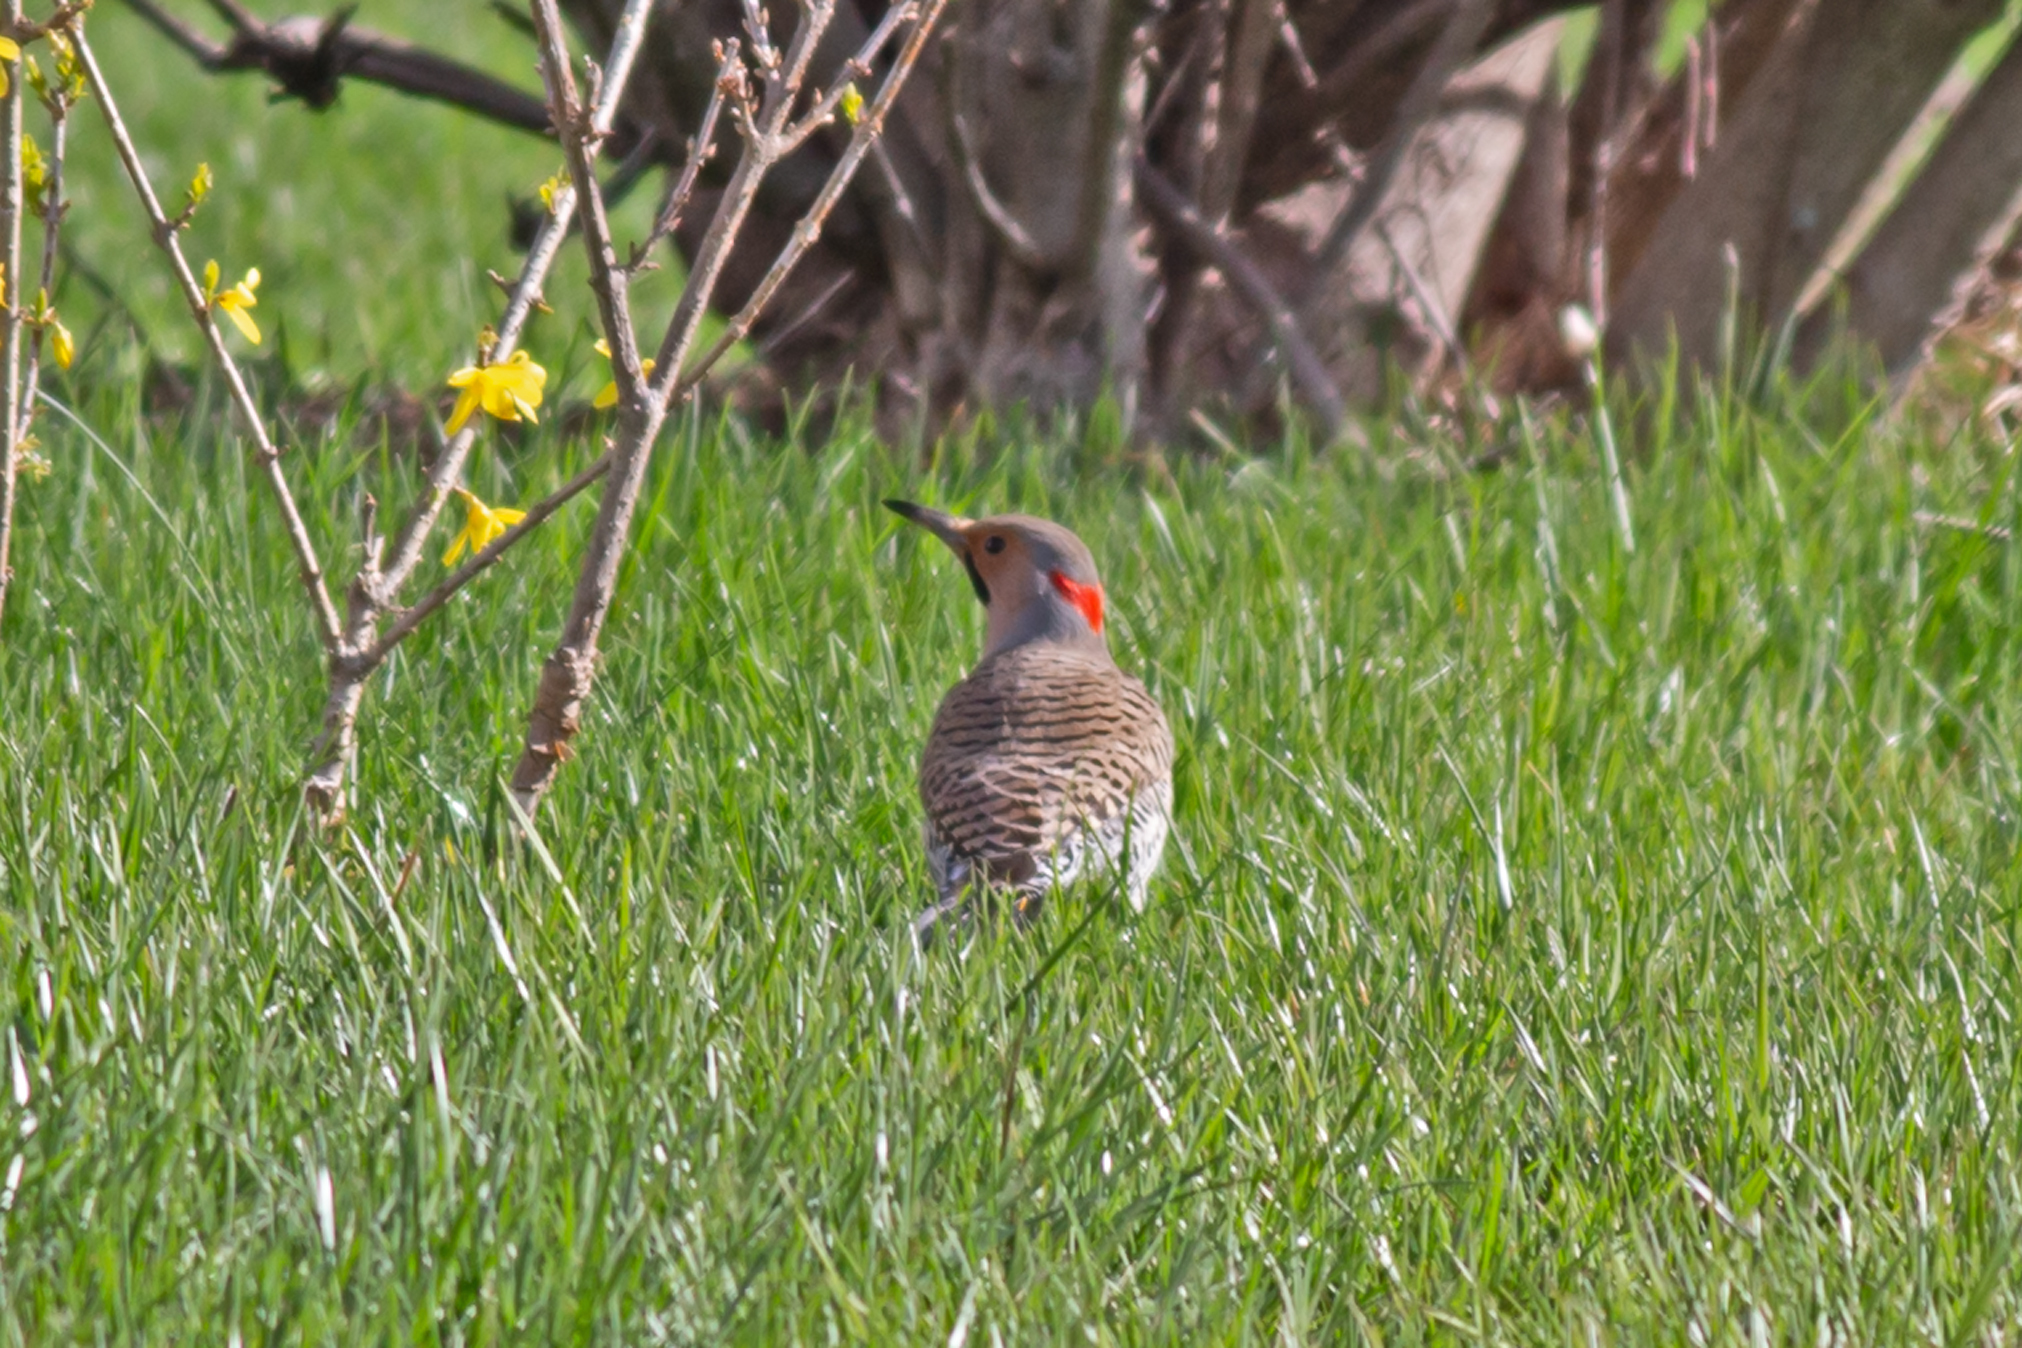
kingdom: Animalia
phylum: Chordata
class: Aves
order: Piciformes
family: Picidae
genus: Colaptes
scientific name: Colaptes auratus
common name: Northern flicker
